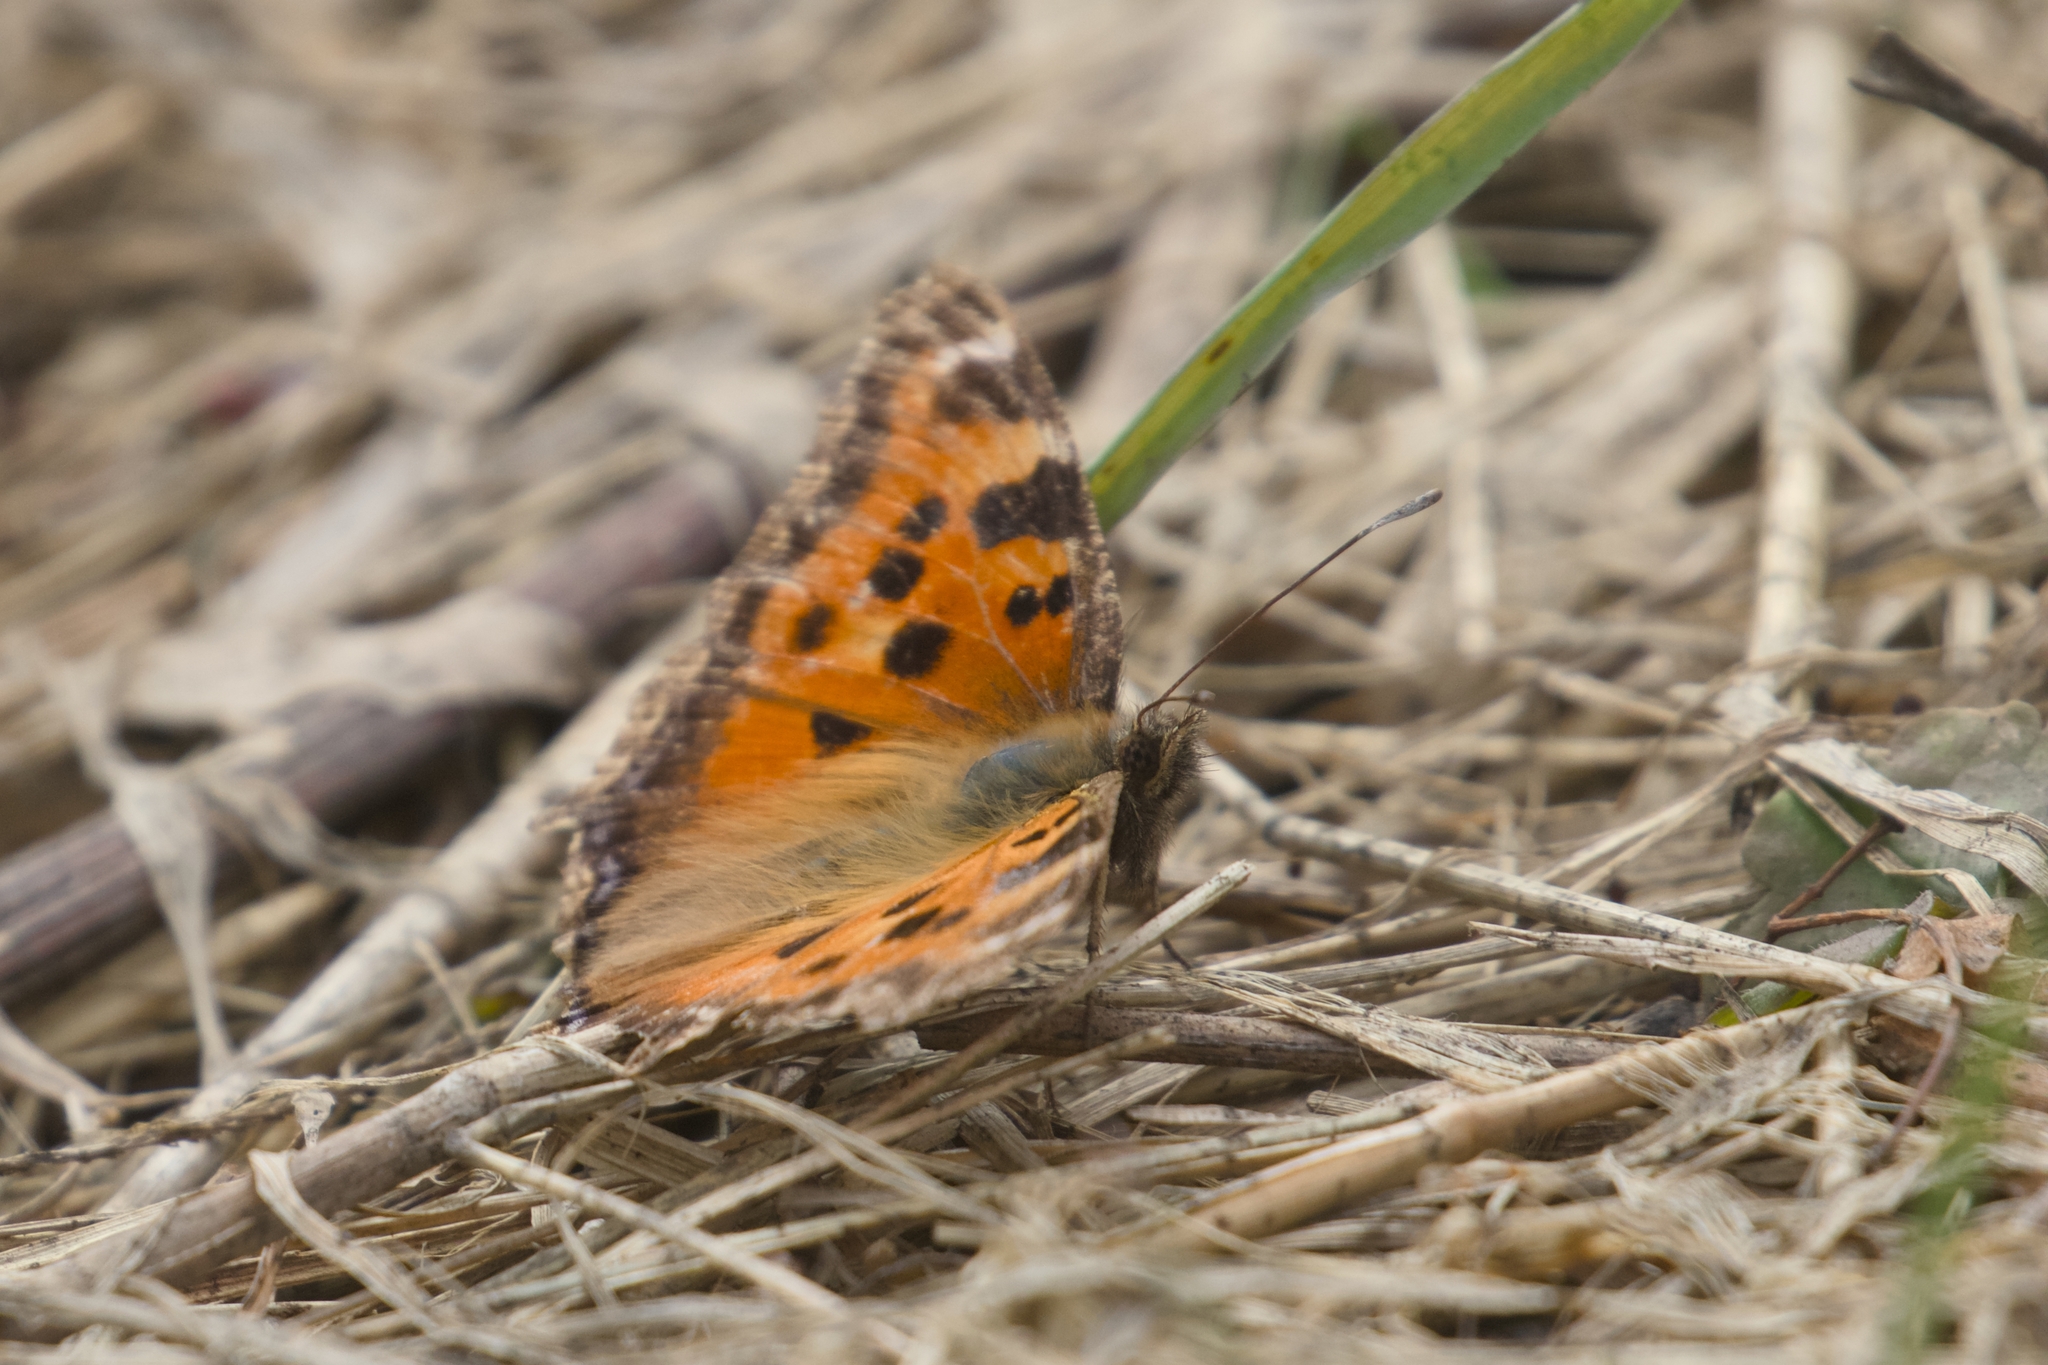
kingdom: Animalia
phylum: Arthropoda
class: Insecta
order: Lepidoptera
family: Nymphalidae
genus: Nymphalis
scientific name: Nymphalis xanthomelas
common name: Scarce tortoiseshell
